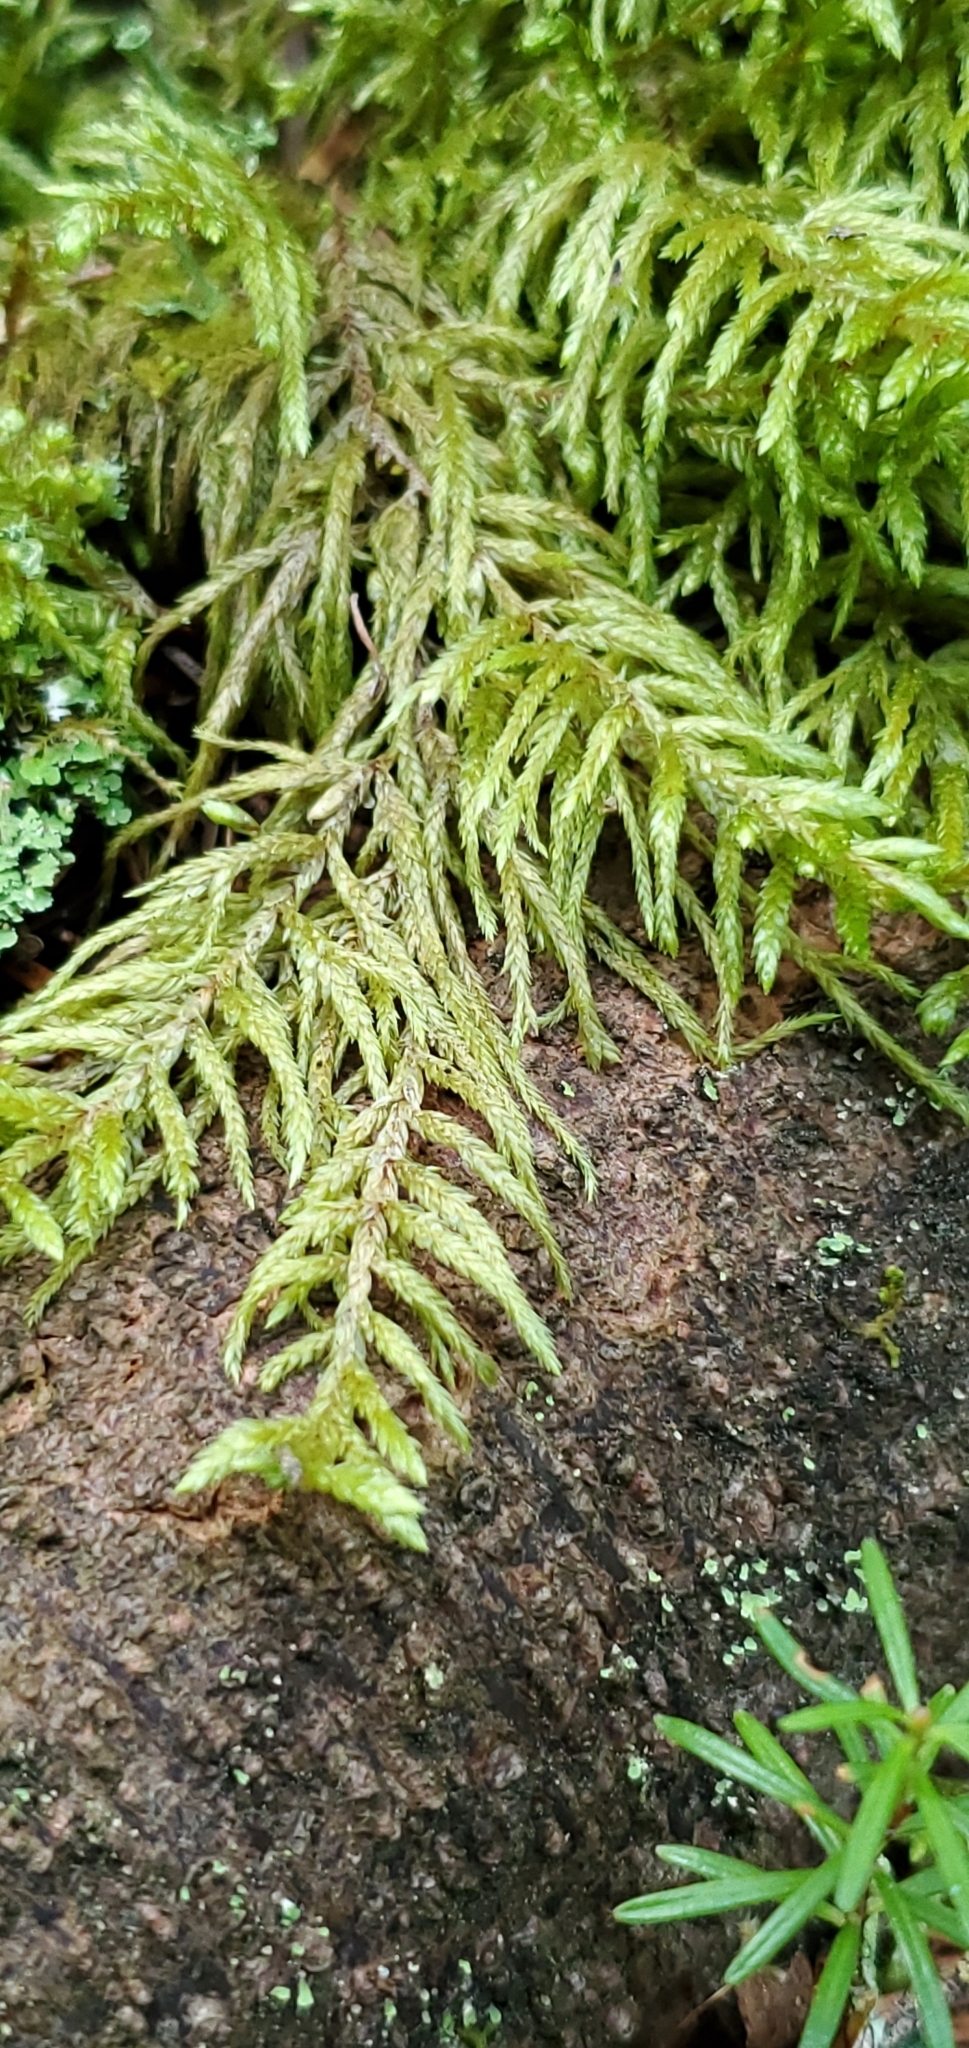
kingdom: Plantae
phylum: Bryophyta
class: Bryopsida
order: Hypnales
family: Hylocomiaceae
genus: Pleurozium
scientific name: Pleurozium schreberi
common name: Red-stemmed feather moss
